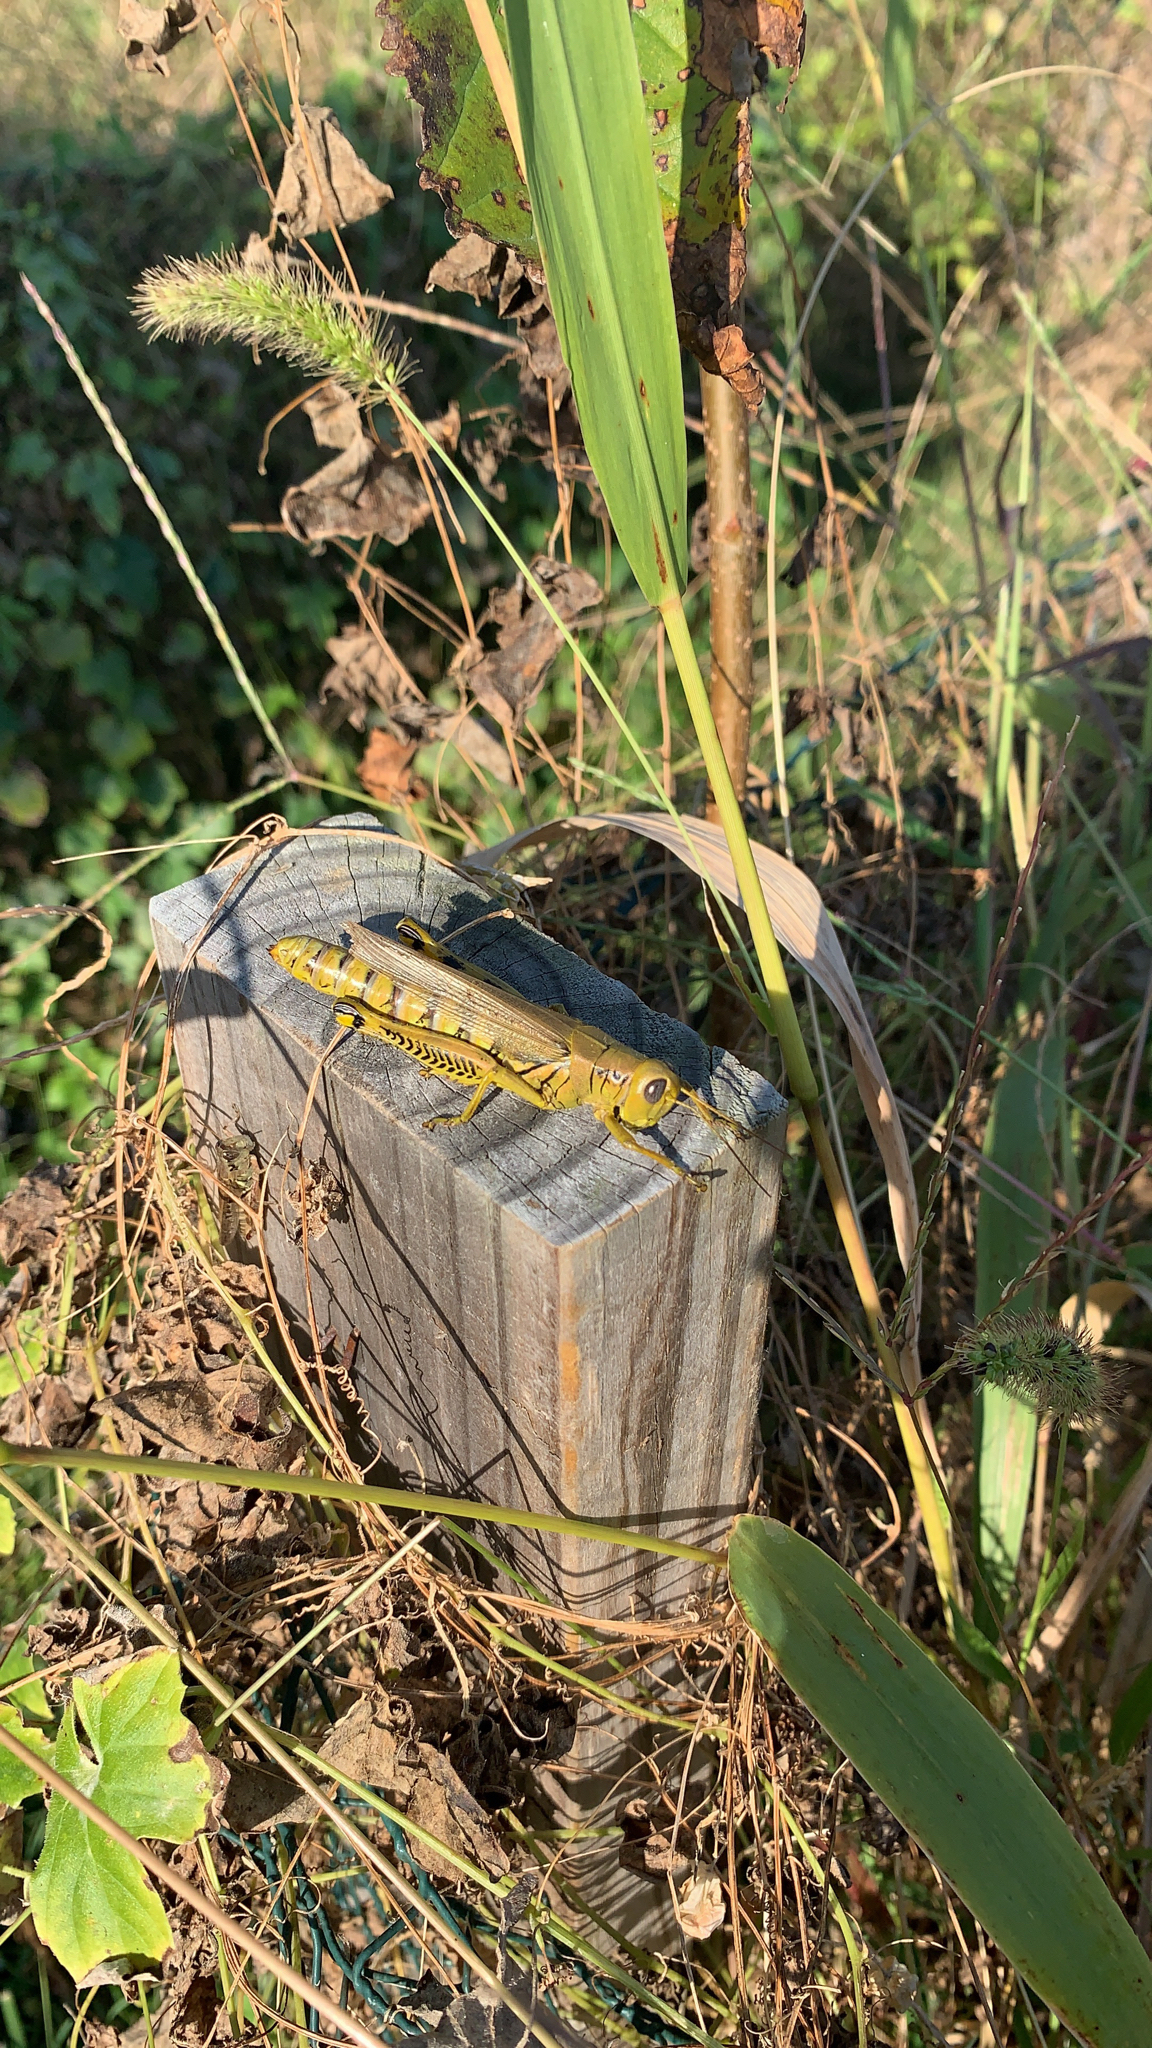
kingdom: Animalia
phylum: Arthropoda
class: Insecta
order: Orthoptera
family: Acrididae
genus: Melanoplus
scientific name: Melanoplus differentialis
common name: Differential grasshopper
